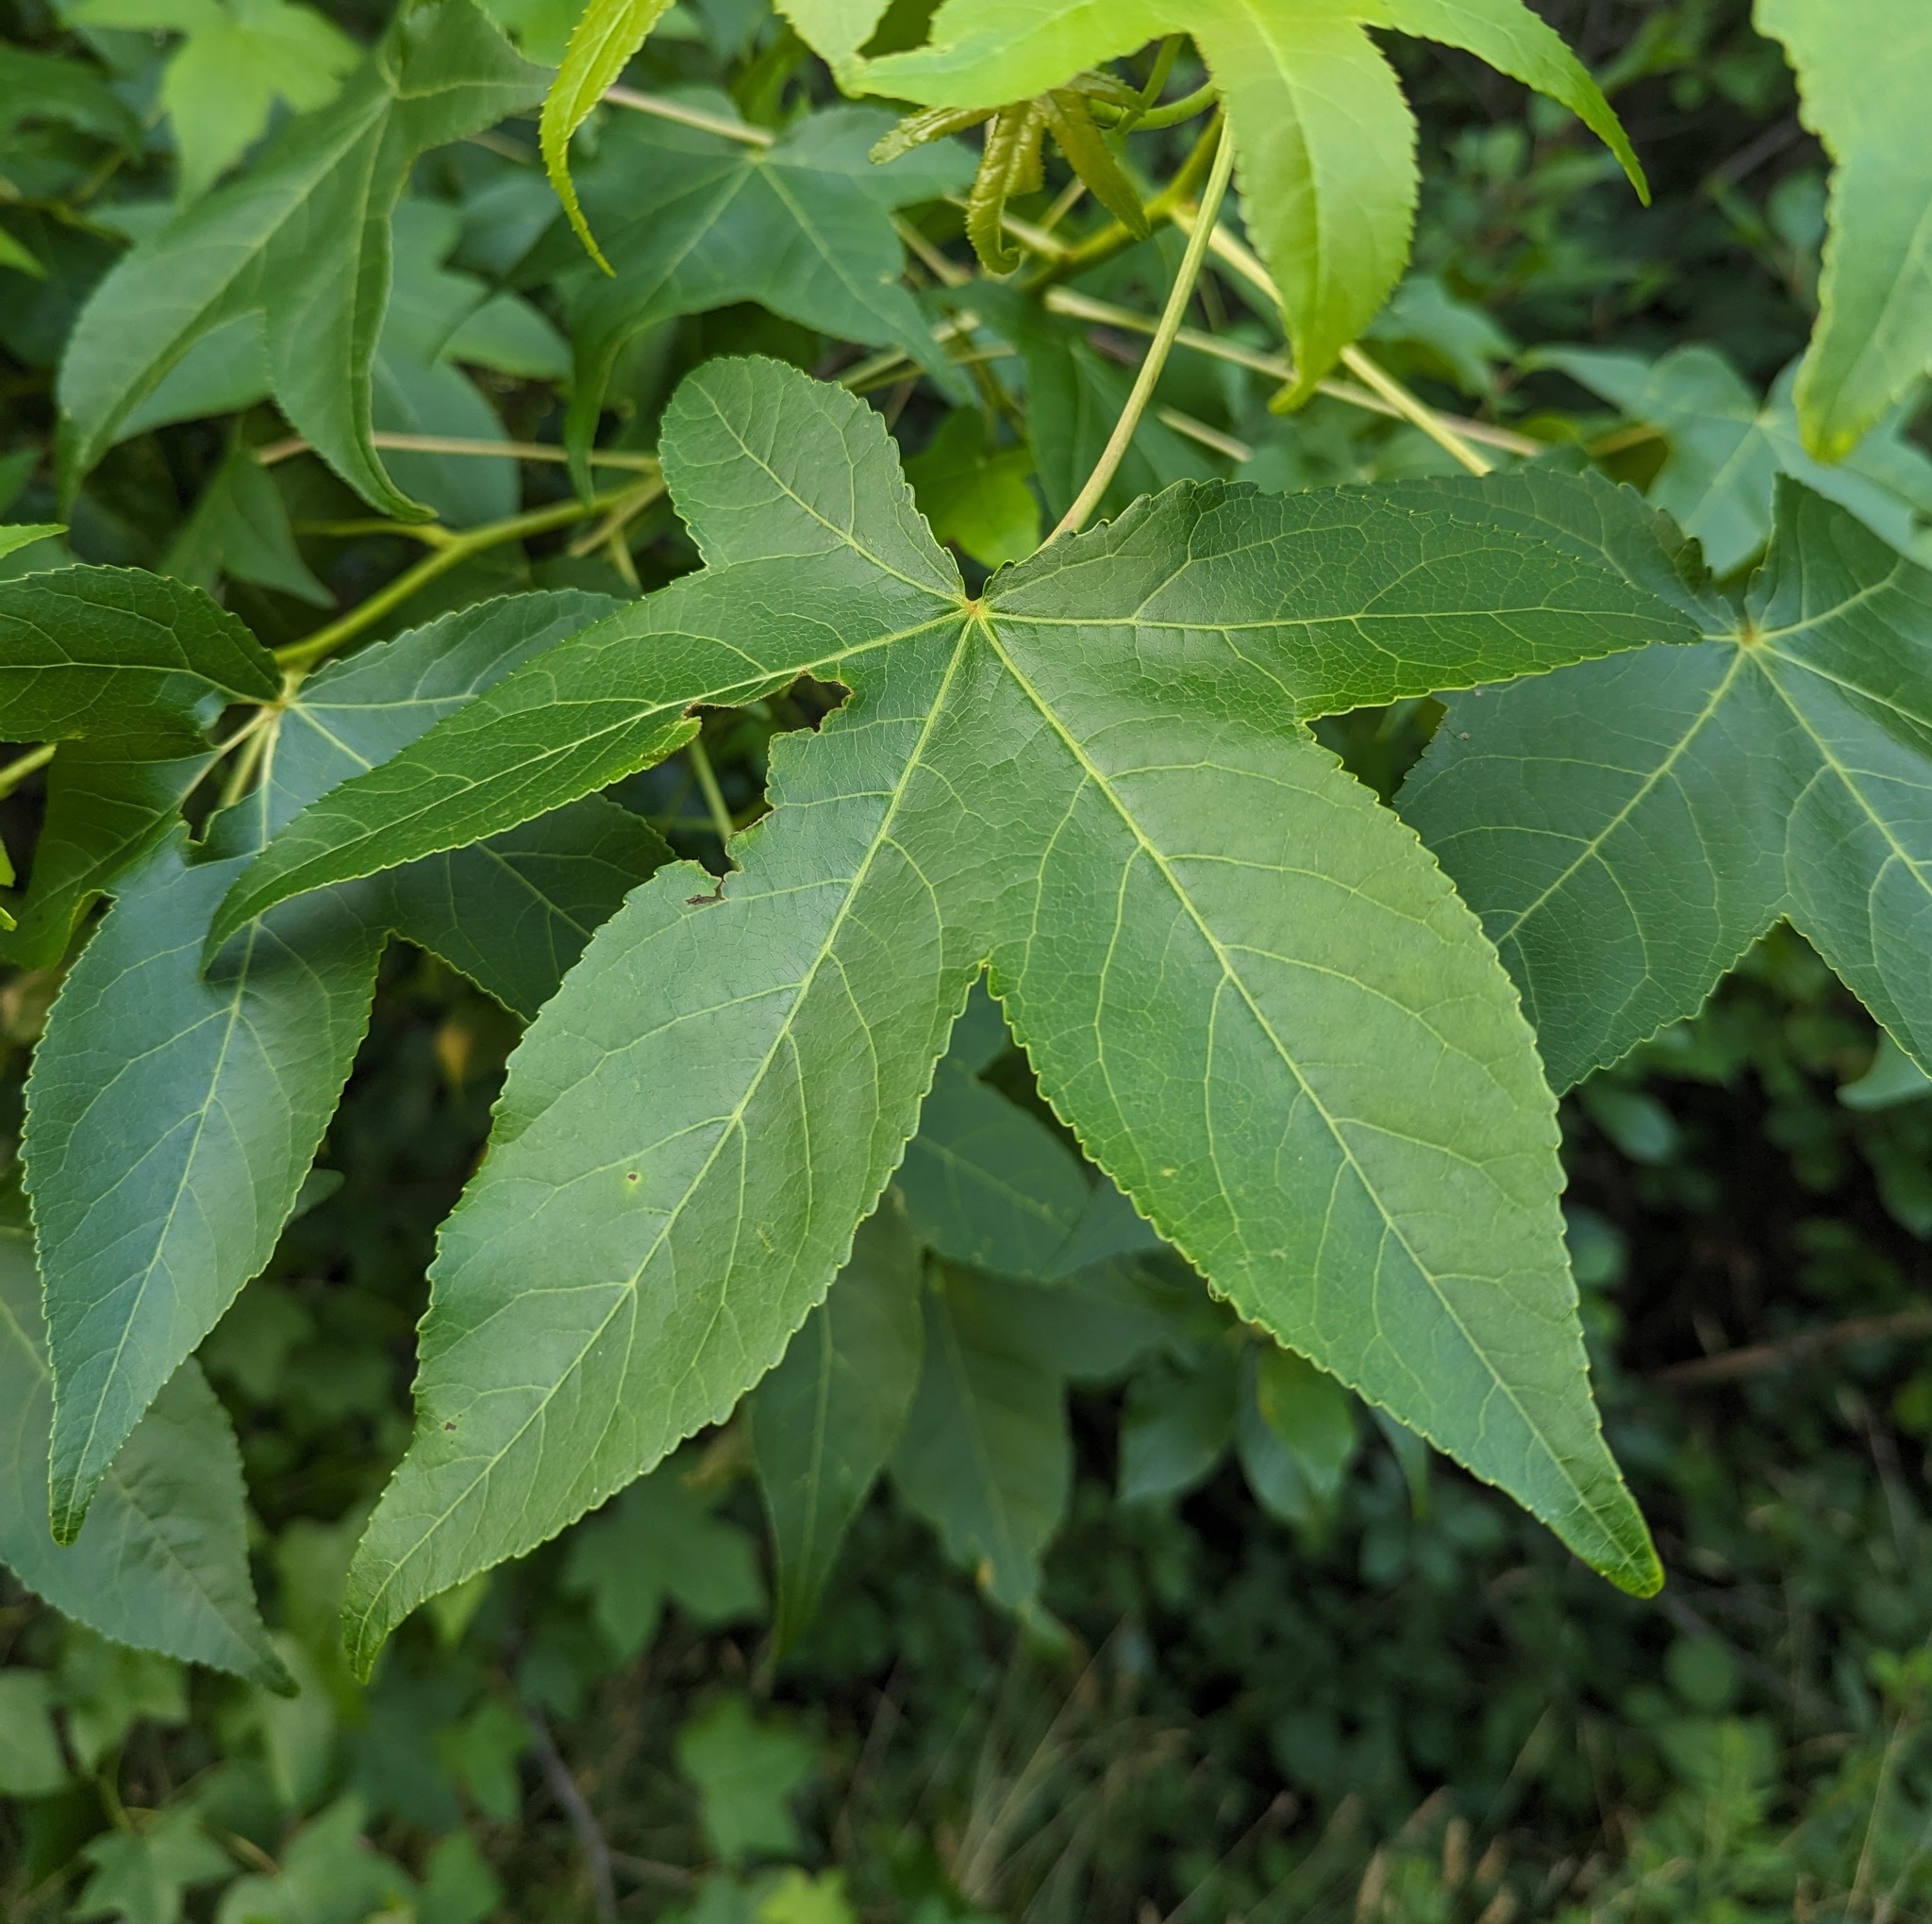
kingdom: Plantae
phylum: Tracheophyta
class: Magnoliopsida
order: Saxifragales
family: Altingiaceae
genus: Liquidambar
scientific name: Liquidambar styraciflua
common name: Sweet gum
